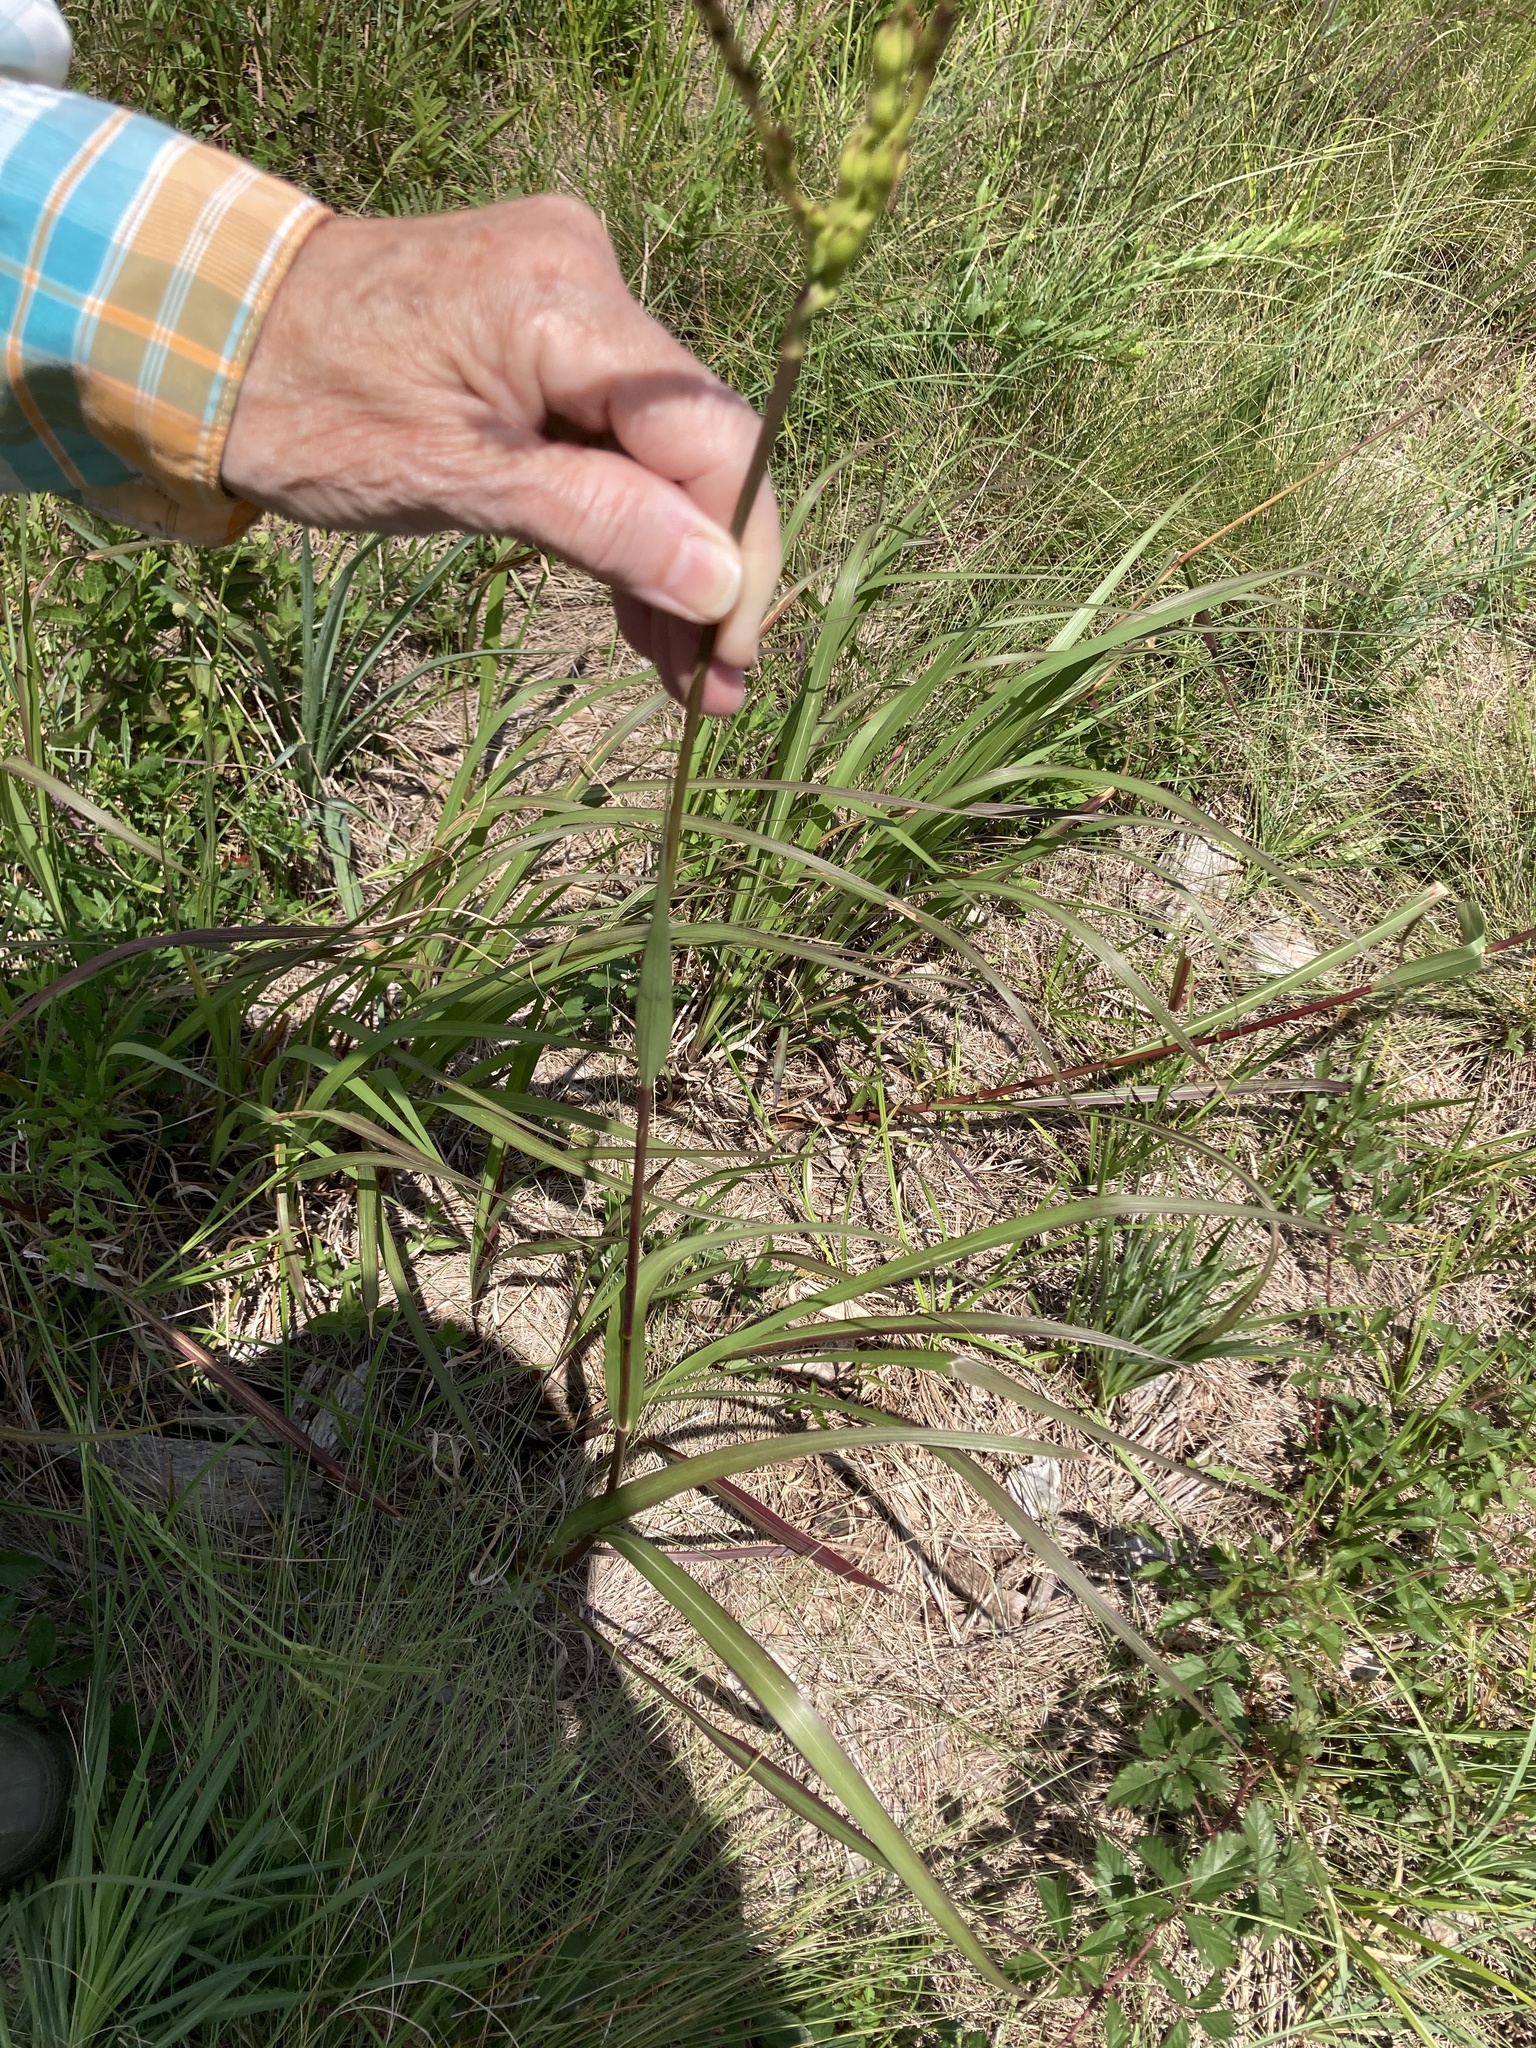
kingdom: Plantae
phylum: Tracheophyta
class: Liliopsida
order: Poales
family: Poaceae
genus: Tripsacum
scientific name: Tripsacum dactyloides
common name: Buffalo-grass
